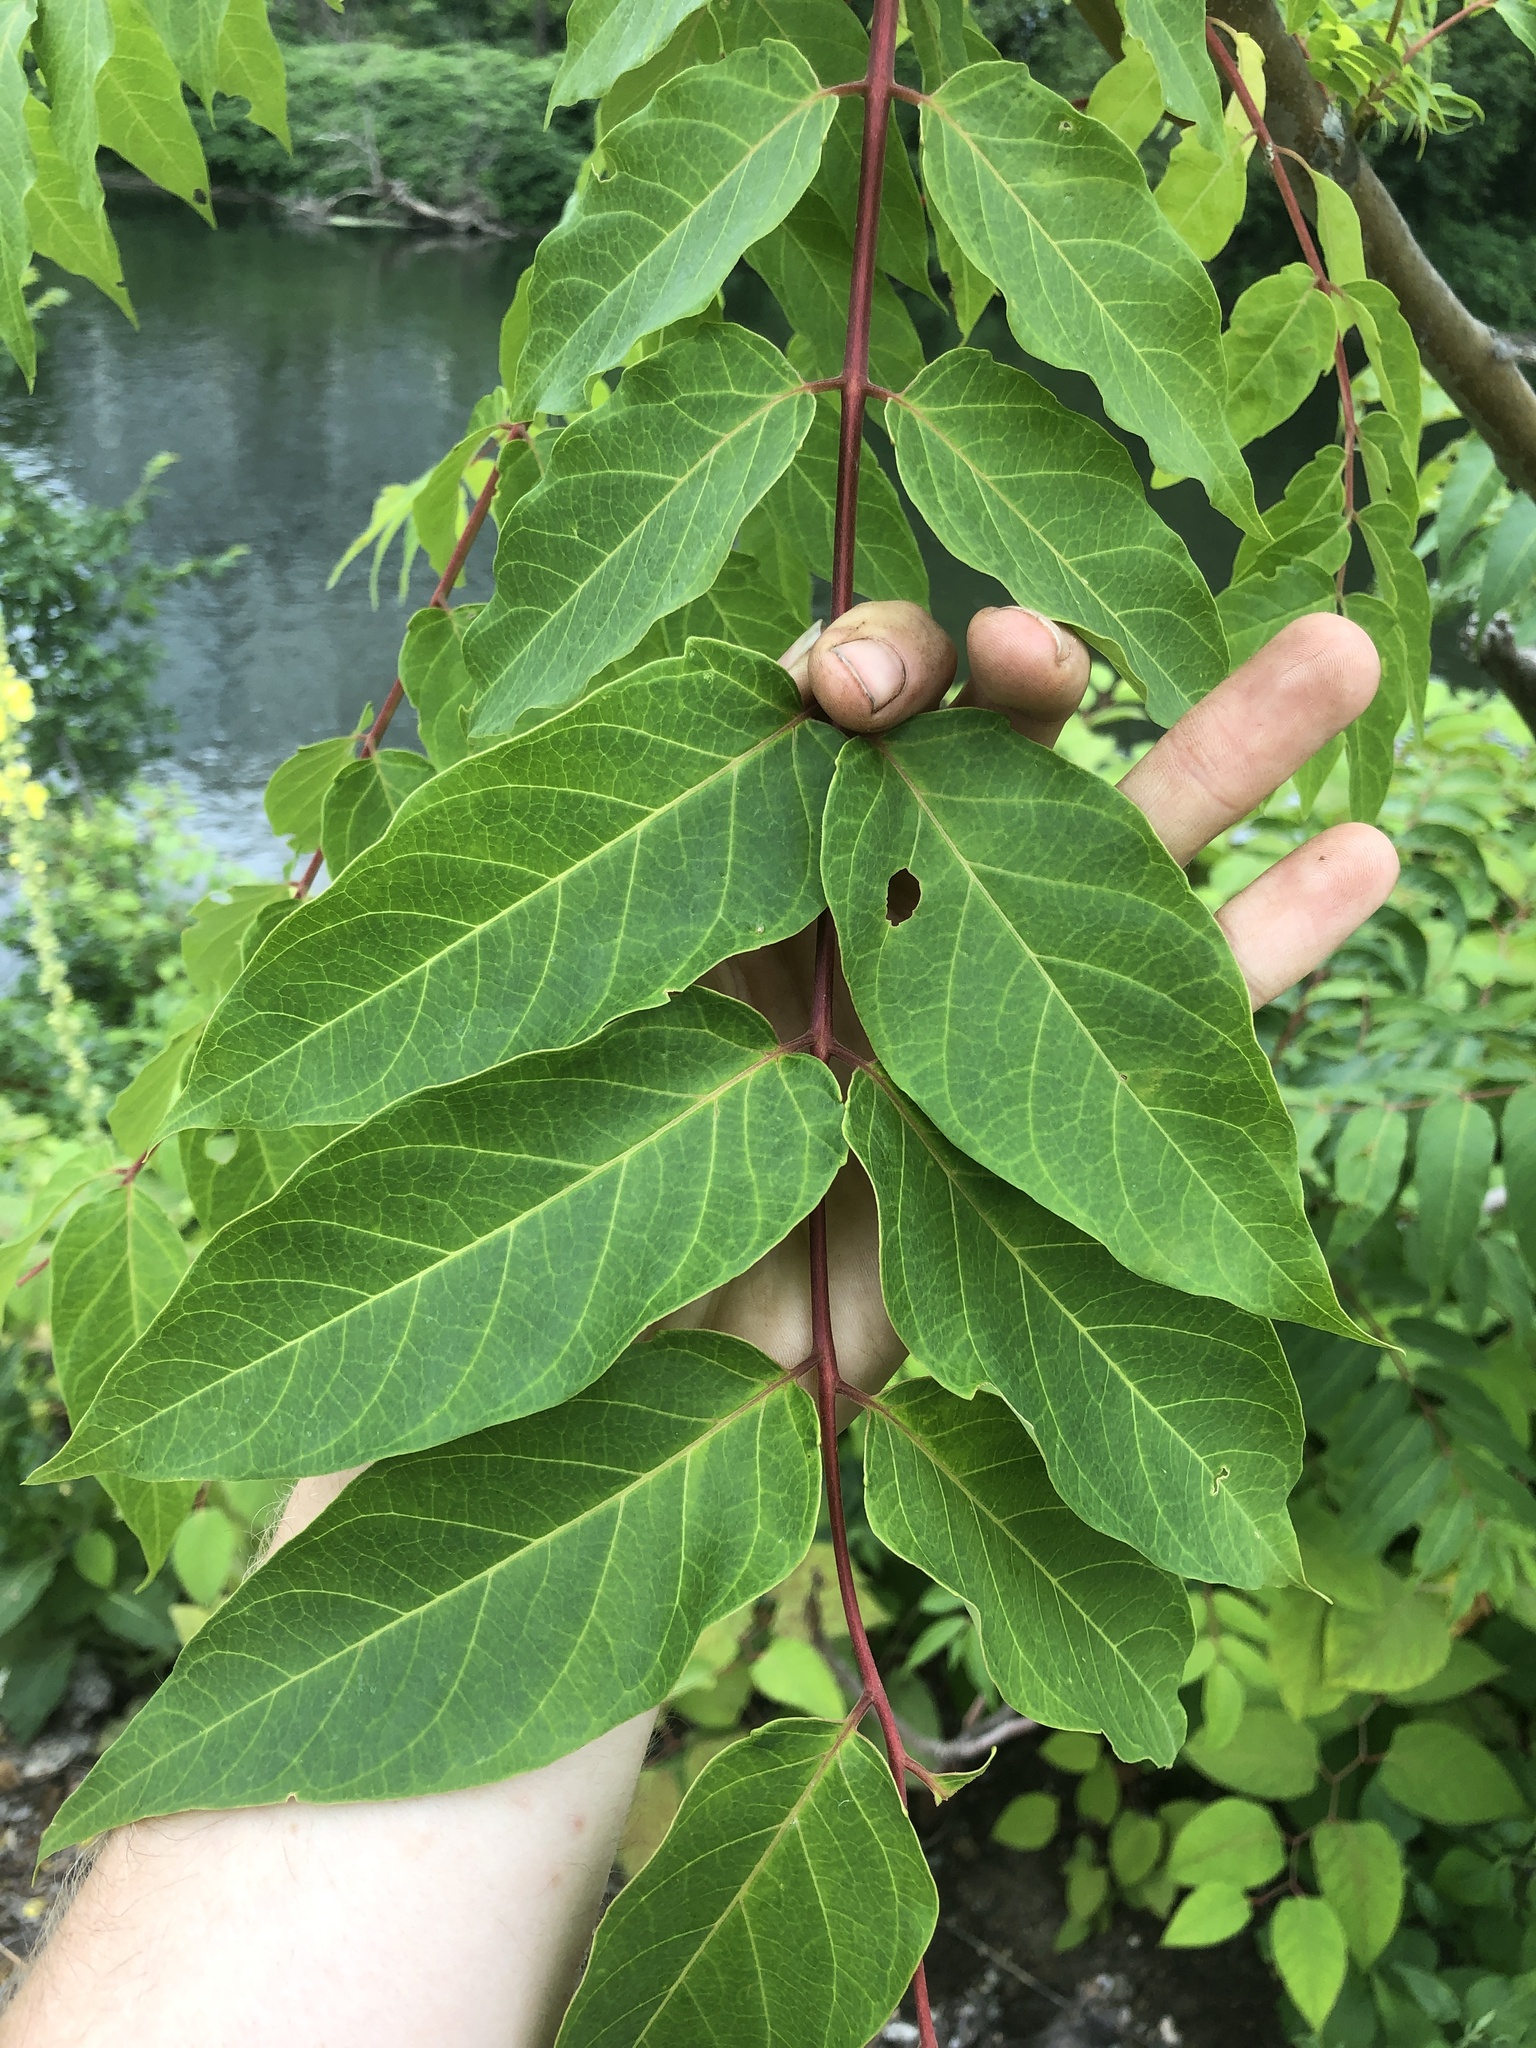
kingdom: Plantae
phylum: Tracheophyta
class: Magnoliopsida
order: Sapindales
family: Simaroubaceae
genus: Ailanthus
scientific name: Ailanthus altissima
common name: Tree-of-heaven
